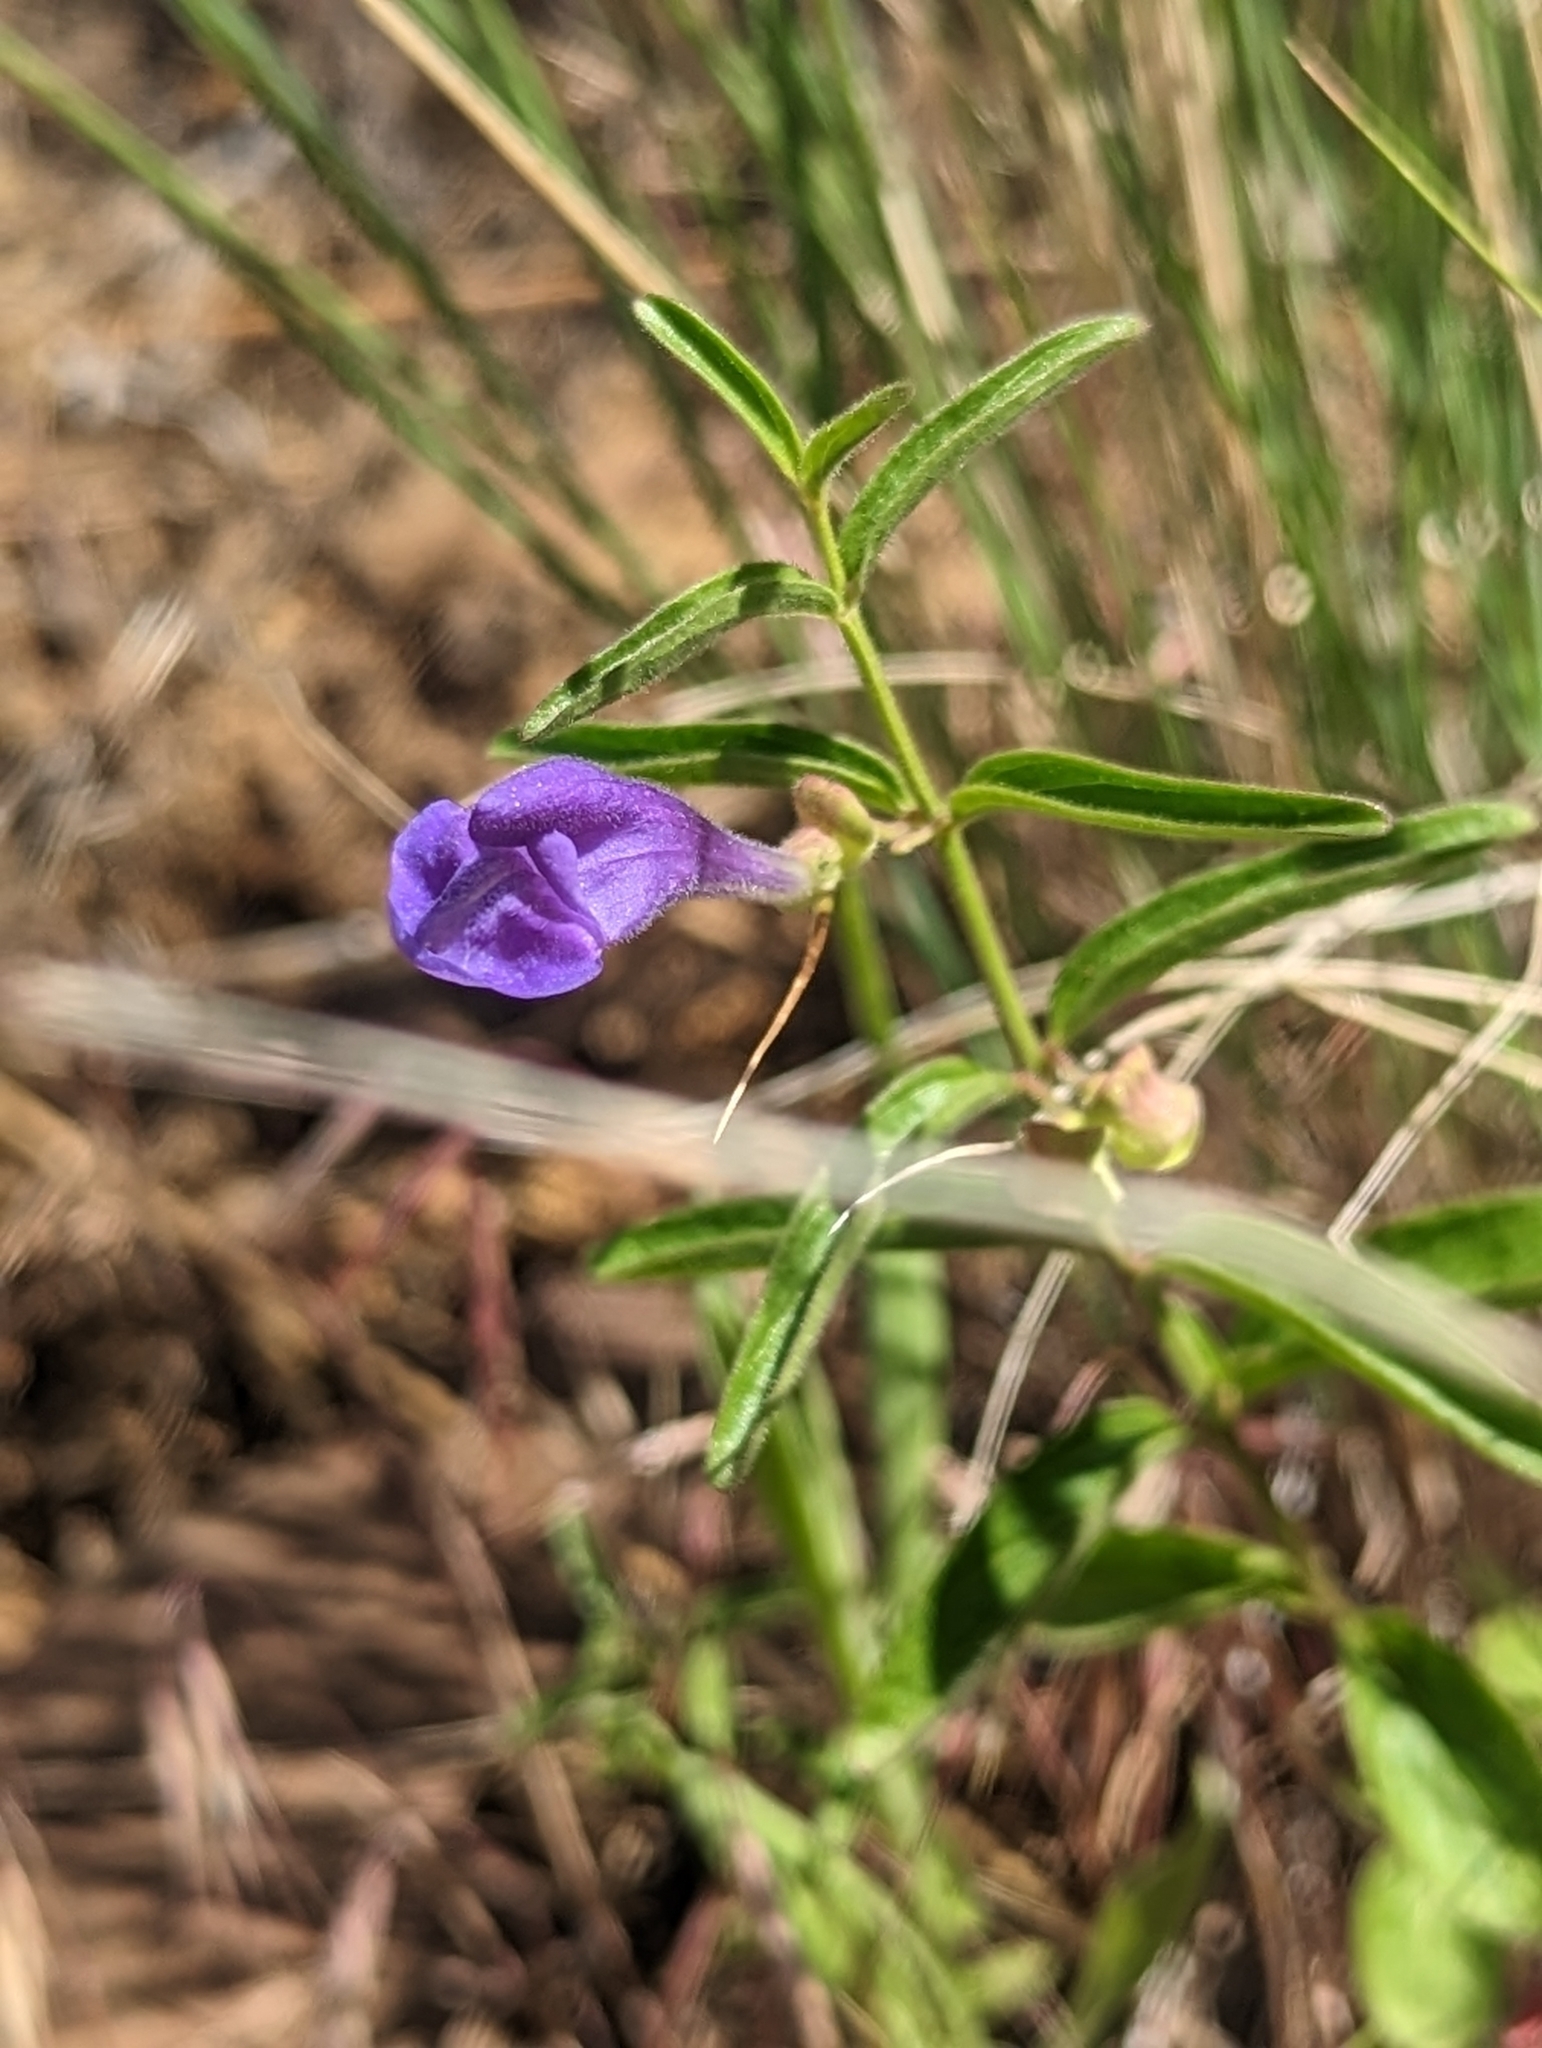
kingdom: Plantae
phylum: Tracheophyta
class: Magnoliopsida
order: Lamiales
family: Lamiaceae
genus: Scutellaria
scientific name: Scutellaria angustifolia
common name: Narrow-leaved skullcap
